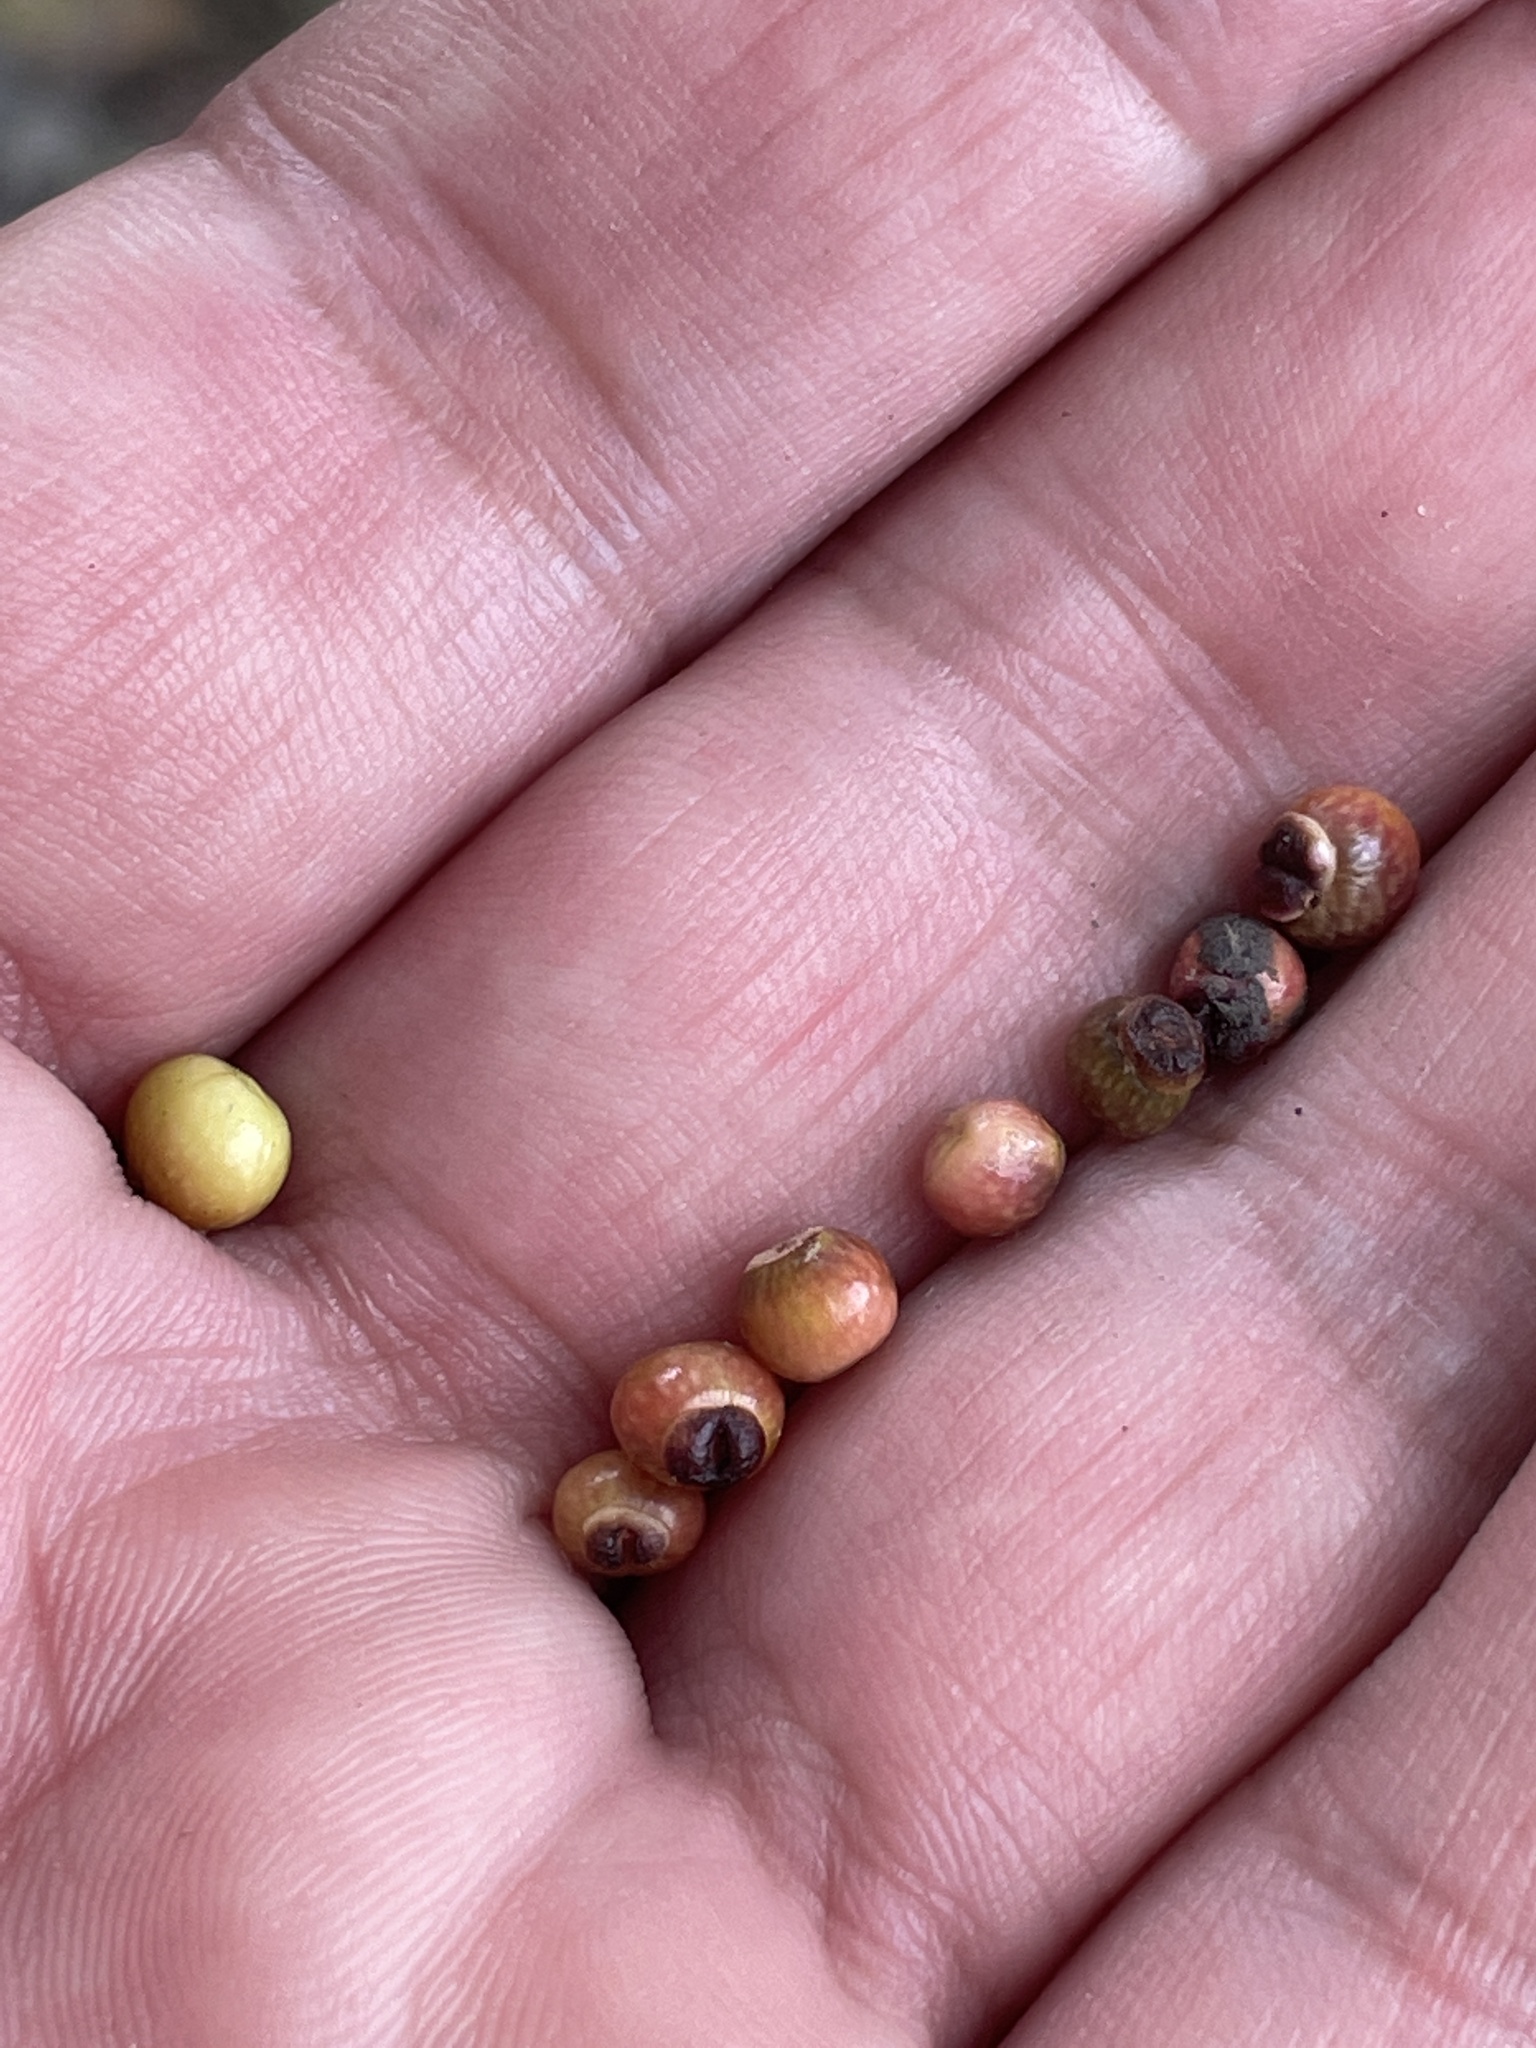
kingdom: Animalia
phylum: Arthropoda
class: Insecta
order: Hymenoptera
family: Cynipidae
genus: Kokkocynips
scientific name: Kokkocynips rileyi
